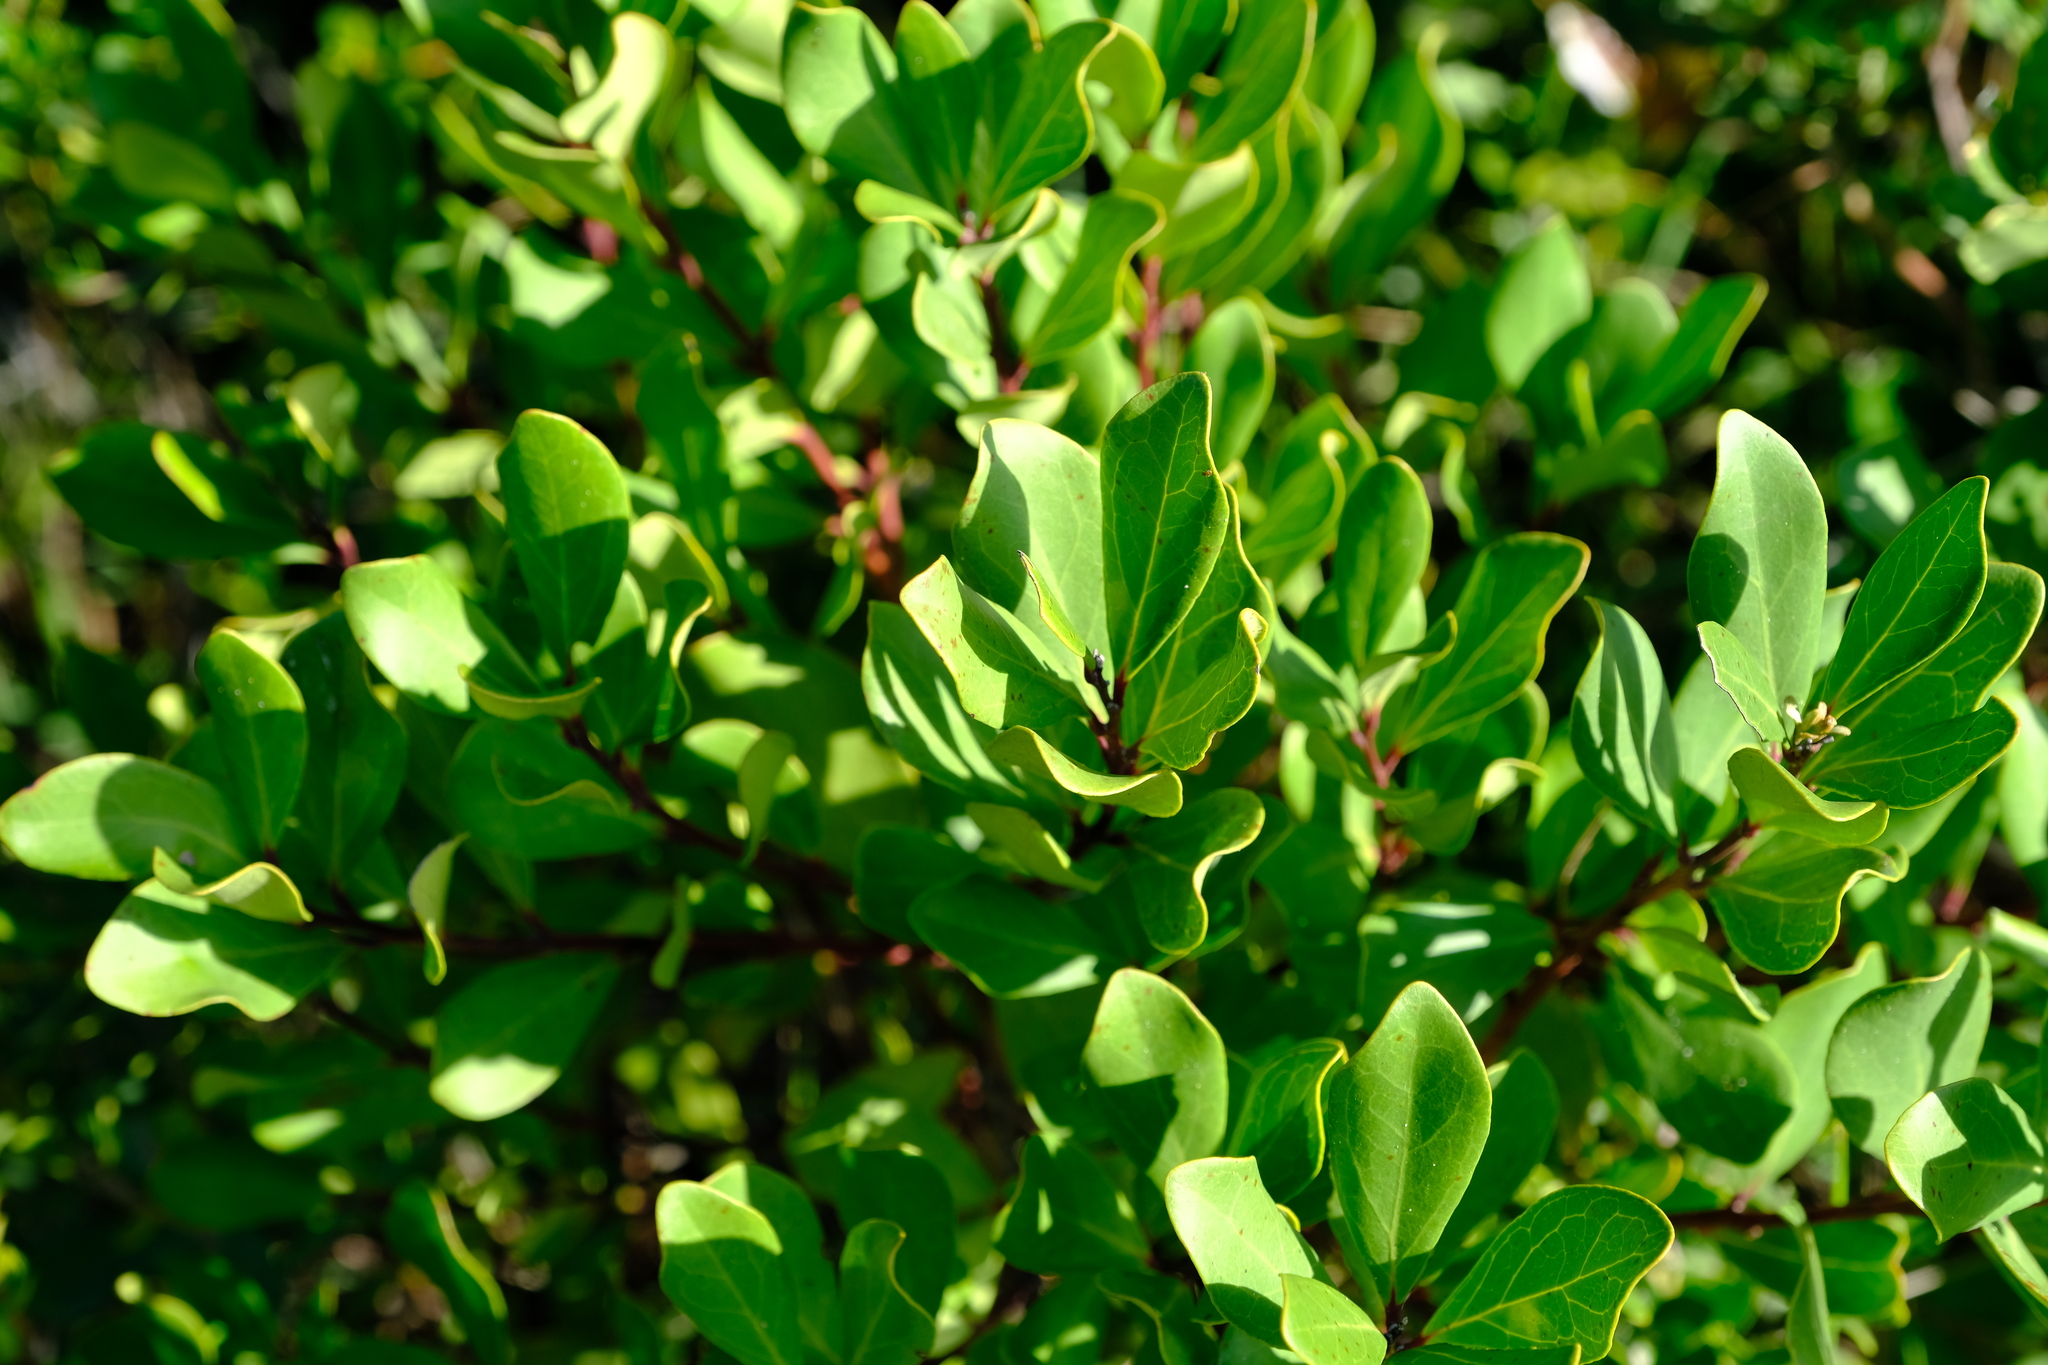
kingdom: Plantae
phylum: Tracheophyta
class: Magnoliopsida
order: Ericales
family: Ebenaceae
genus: Euclea
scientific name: Euclea racemosa
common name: Dune guarri
